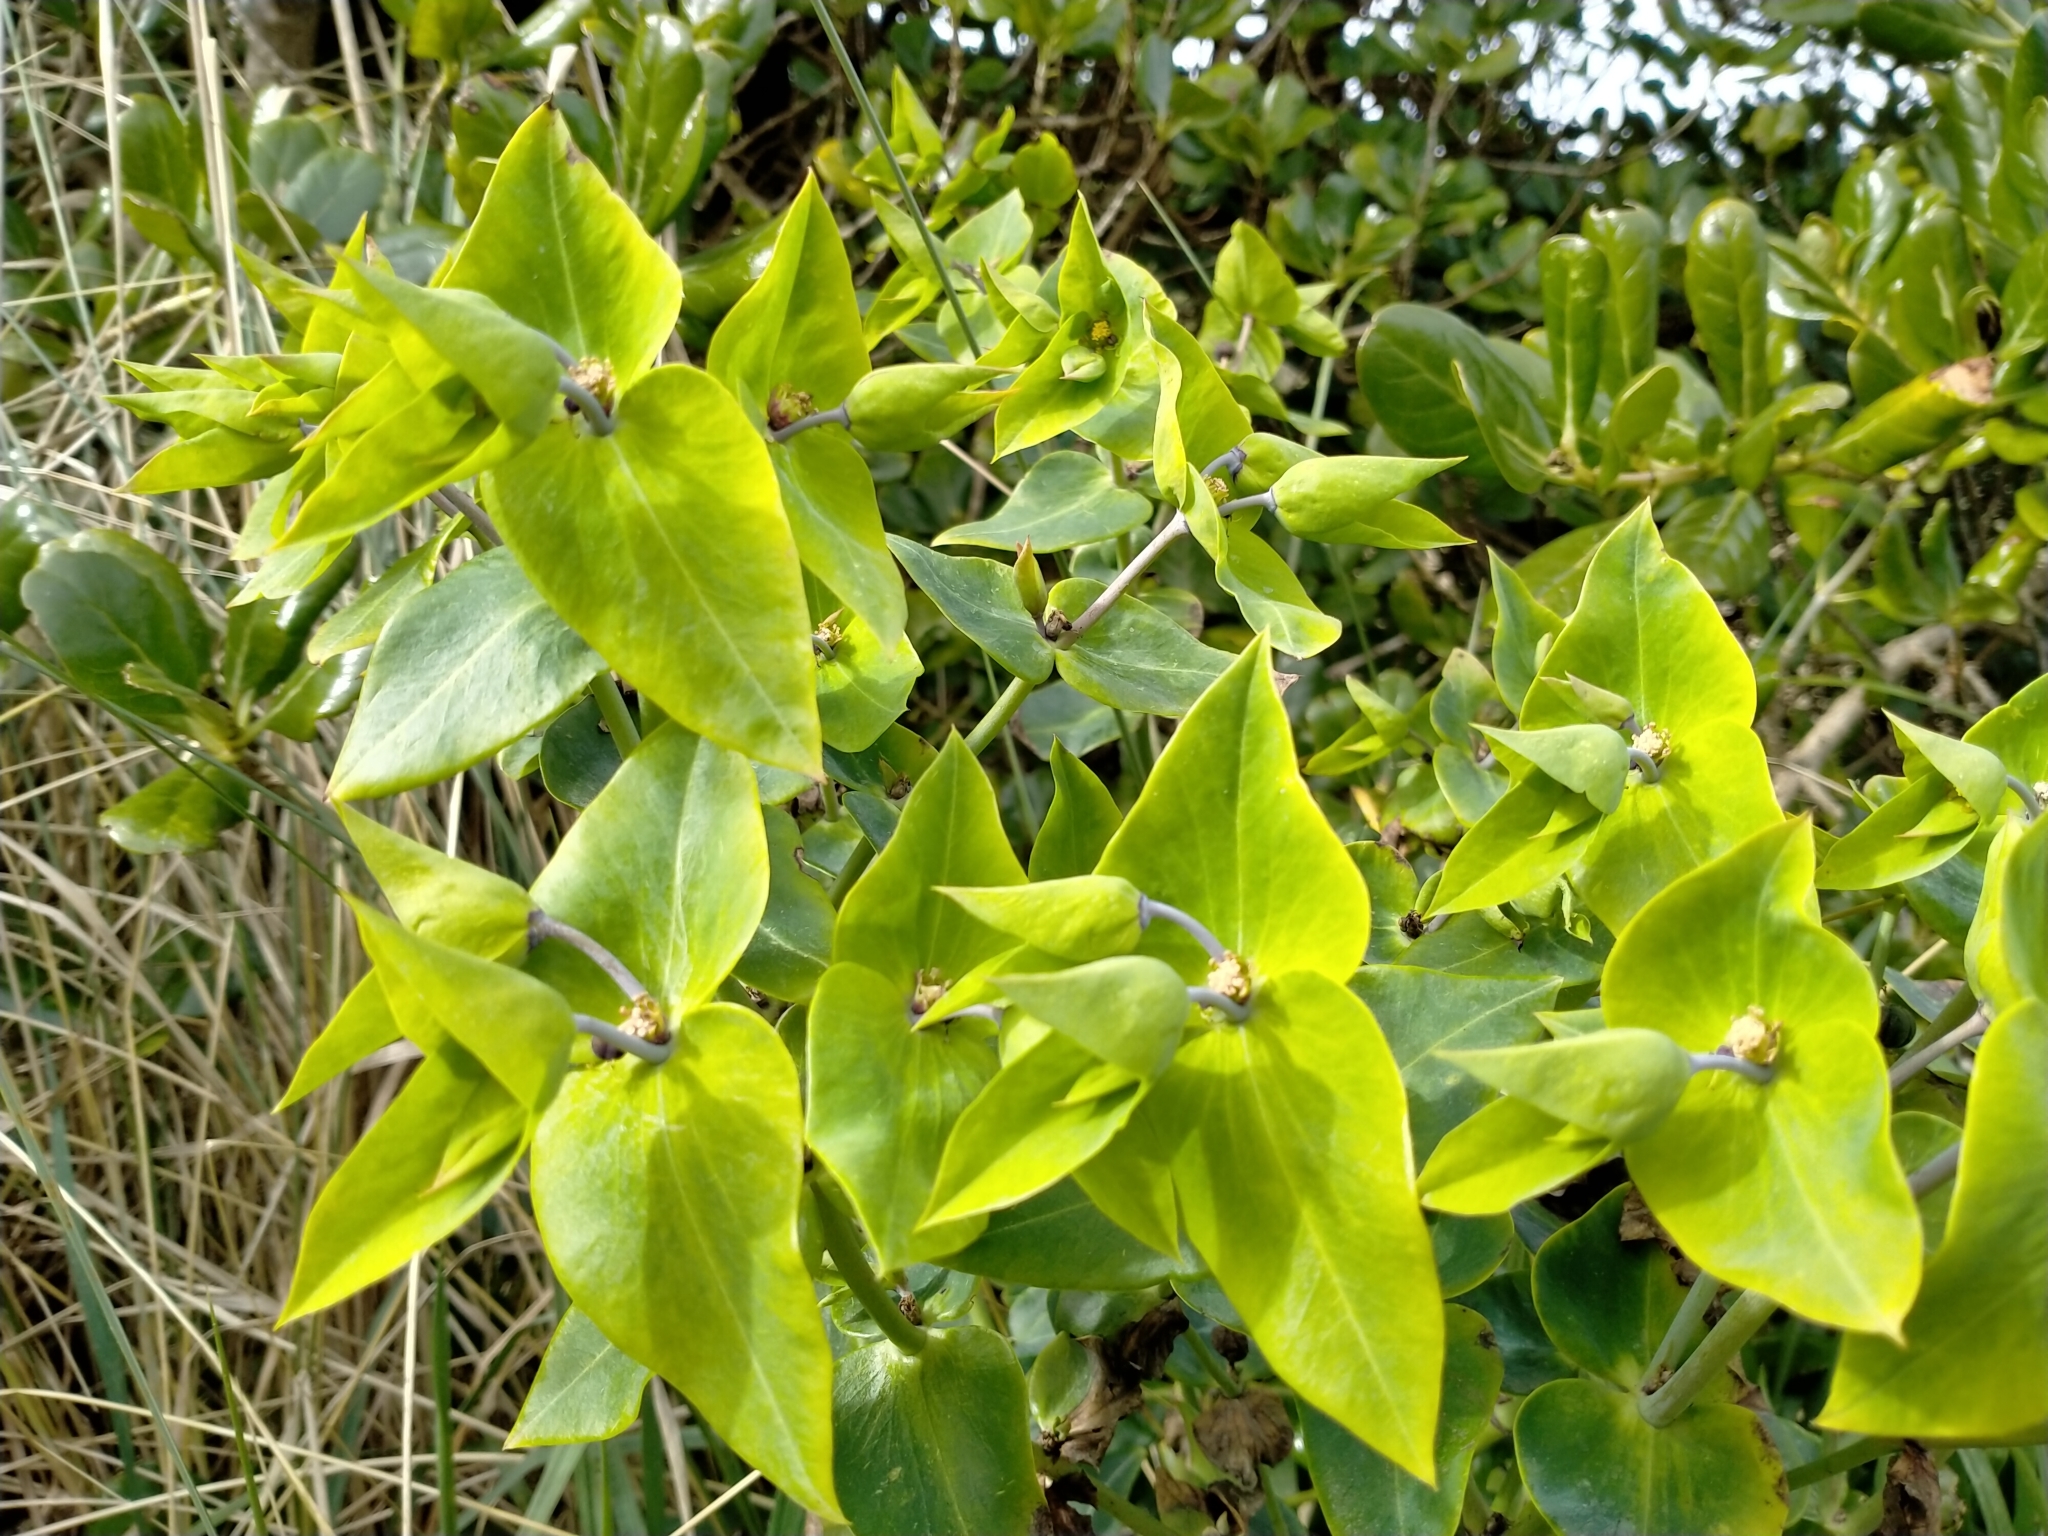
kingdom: Plantae
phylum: Tracheophyta
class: Magnoliopsida
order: Malpighiales
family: Euphorbiaceae
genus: Euphorbia
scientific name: Euphorbia lathyris
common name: Caper spurge
